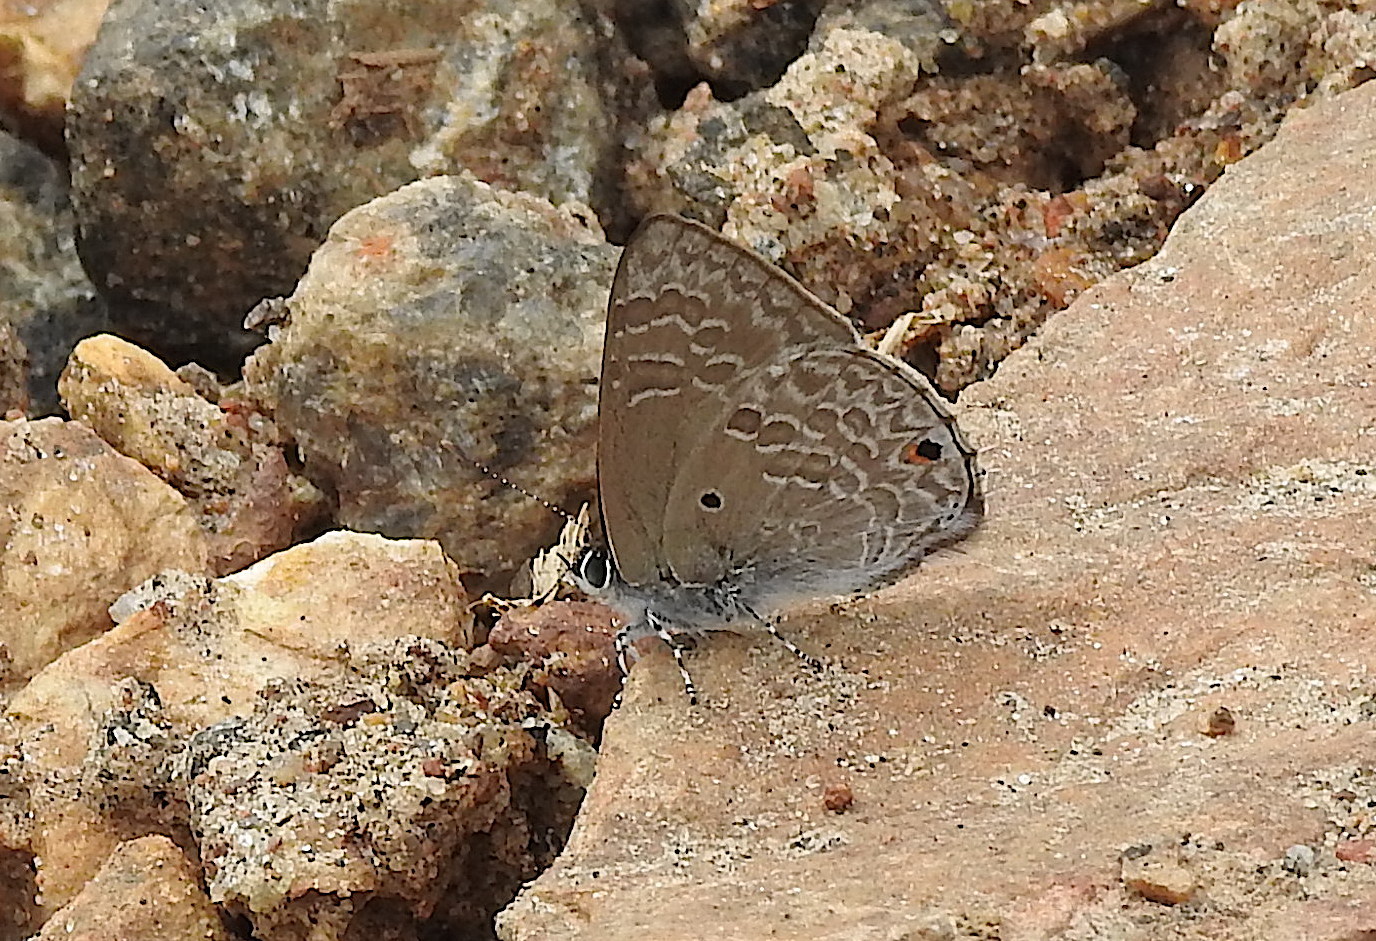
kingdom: Animalia
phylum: Arthropoda
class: Insecta
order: Lepidoptera
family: Lycaenidae
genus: Anthene
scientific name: Anthene lycaenina
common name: Pointed ciliate blue
